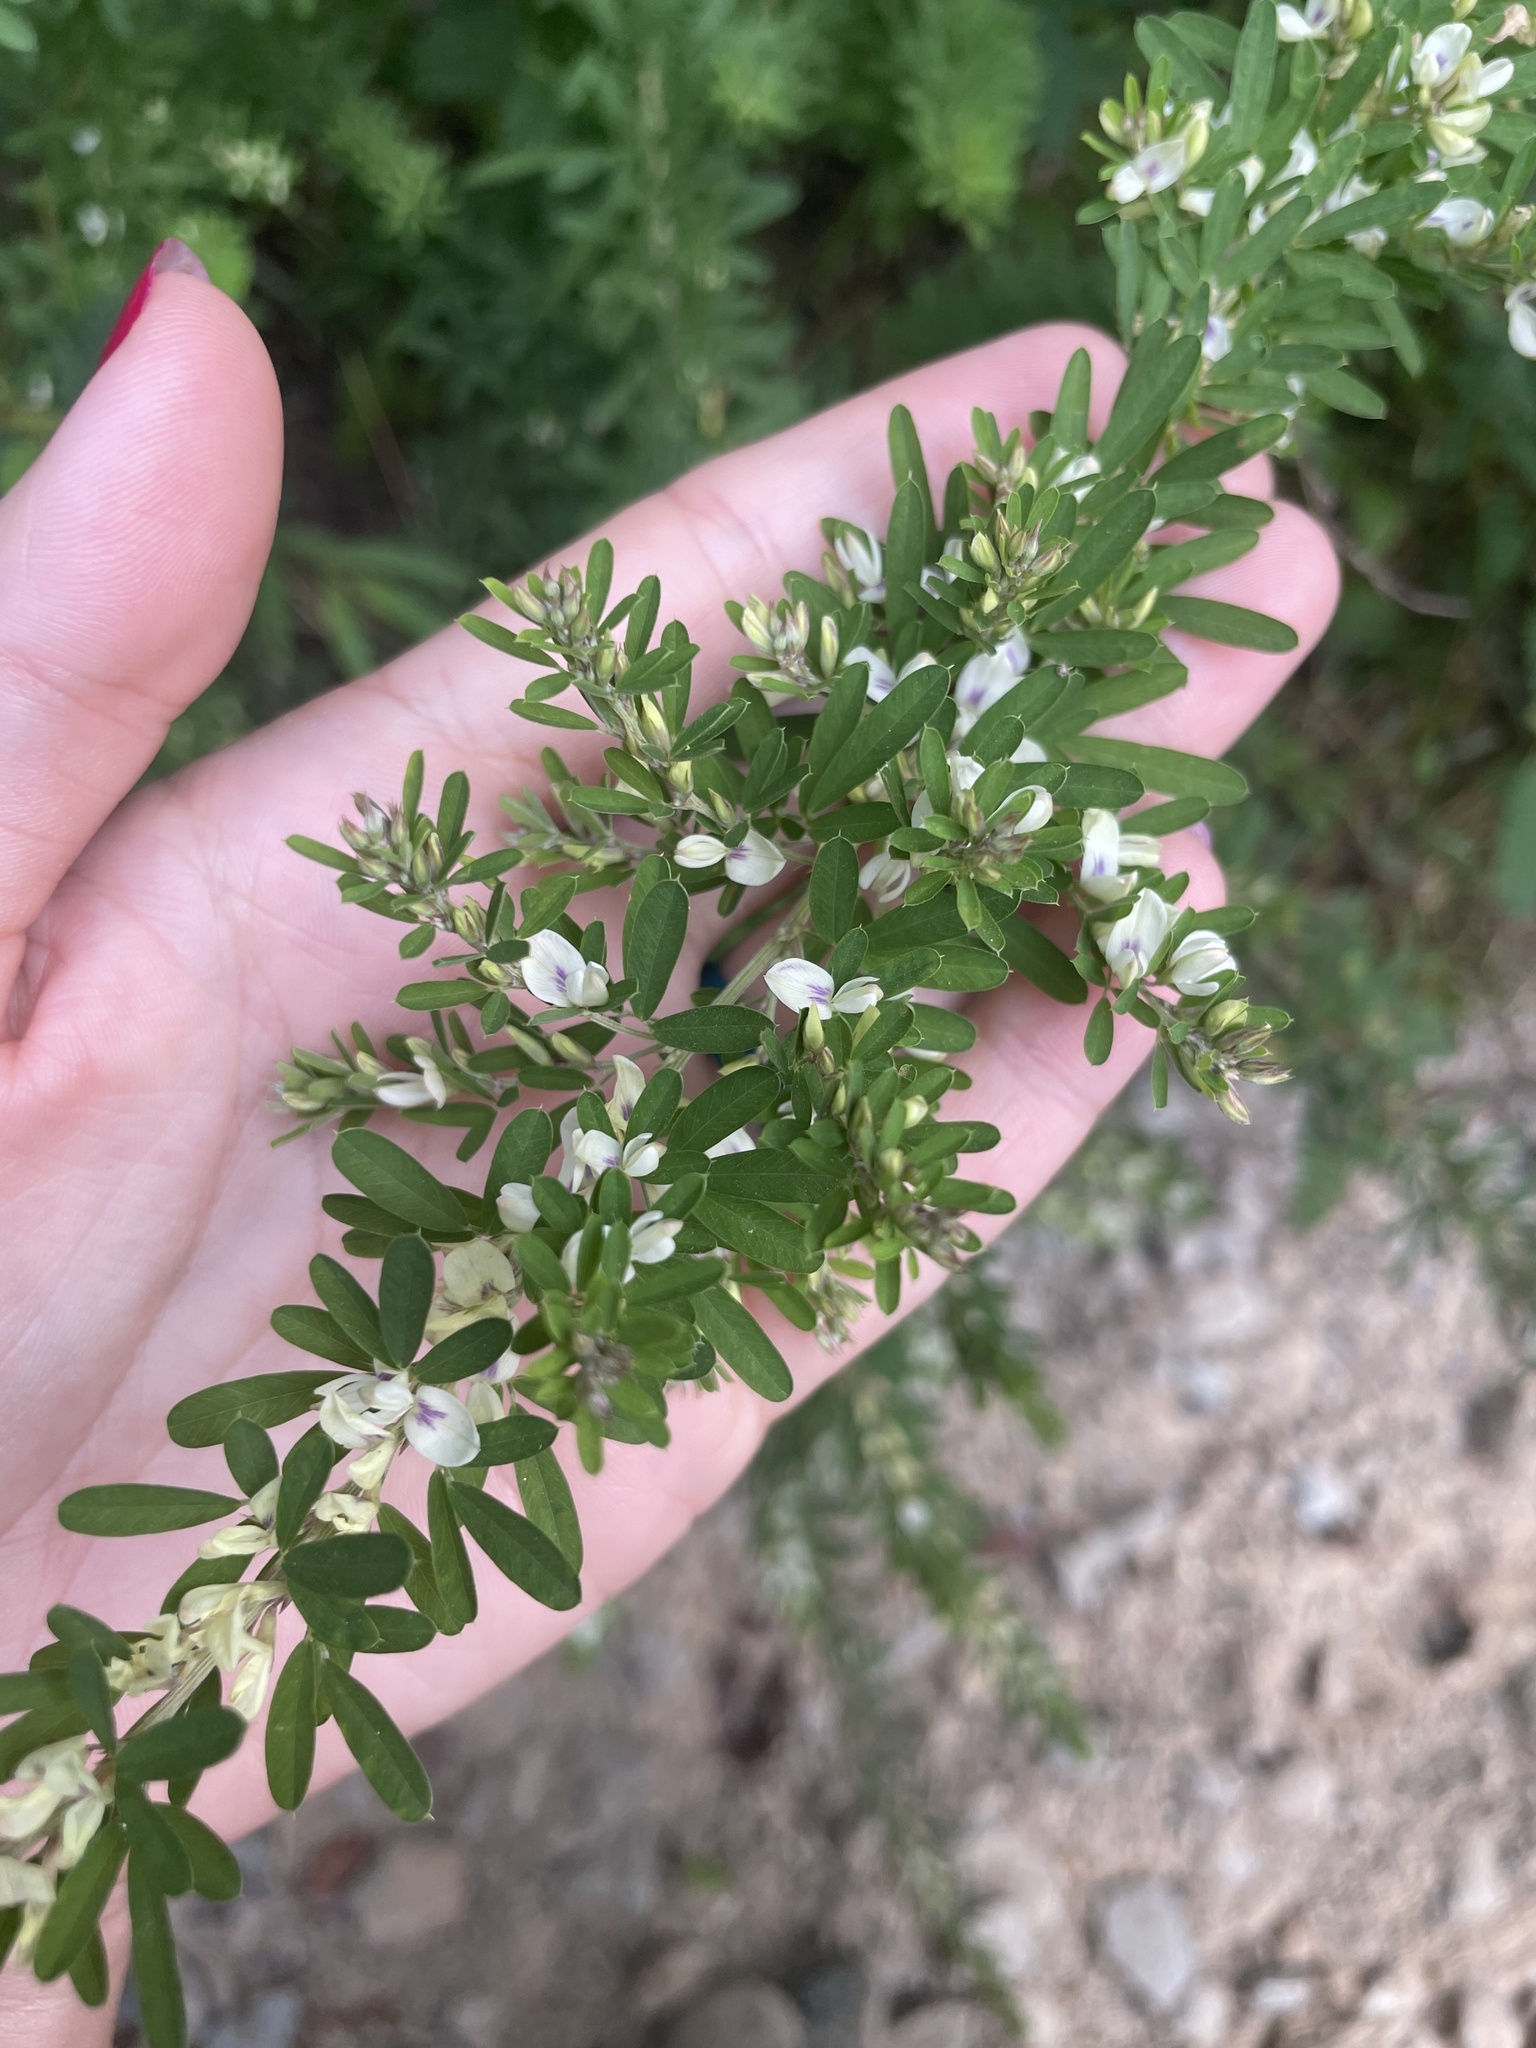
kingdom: Plantae
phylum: Tracheophyta
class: Magnoliopsida
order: Fabales
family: Fabaceae
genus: Lespedeza
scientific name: Lespedeza cuneata
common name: Chinese bush-clover
